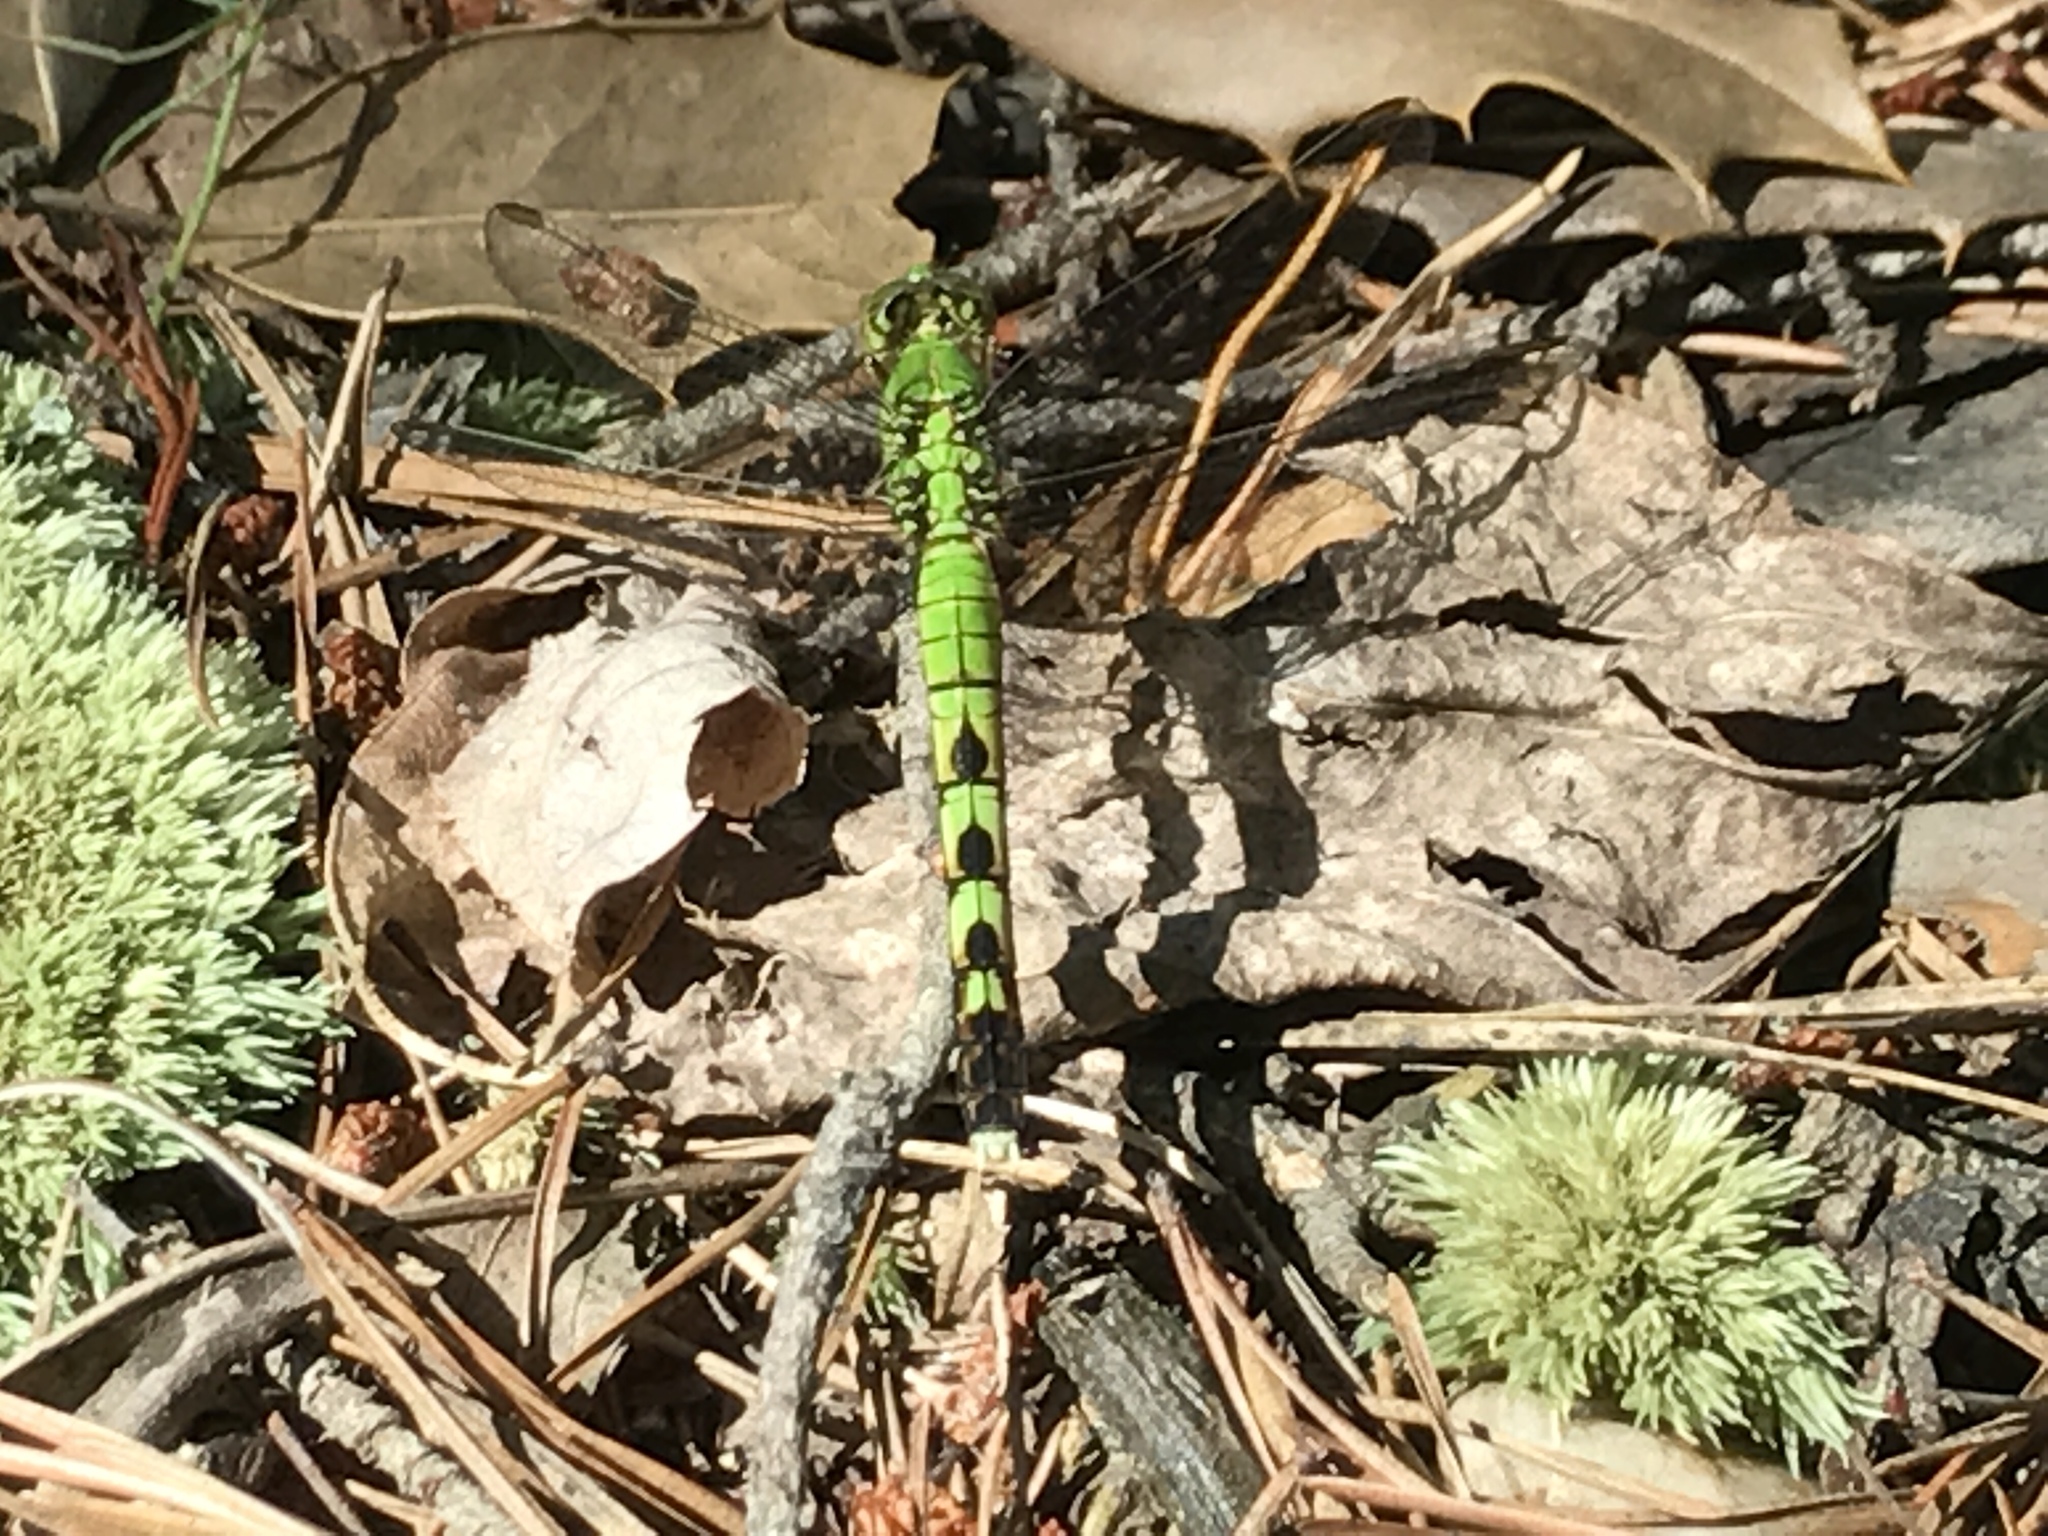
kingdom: Animalia
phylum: Arthropoda
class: Insecta
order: Odonata
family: Libellulidae
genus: Erythemis
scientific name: Erythemis simplicicollis
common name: Eastern pondhawk
